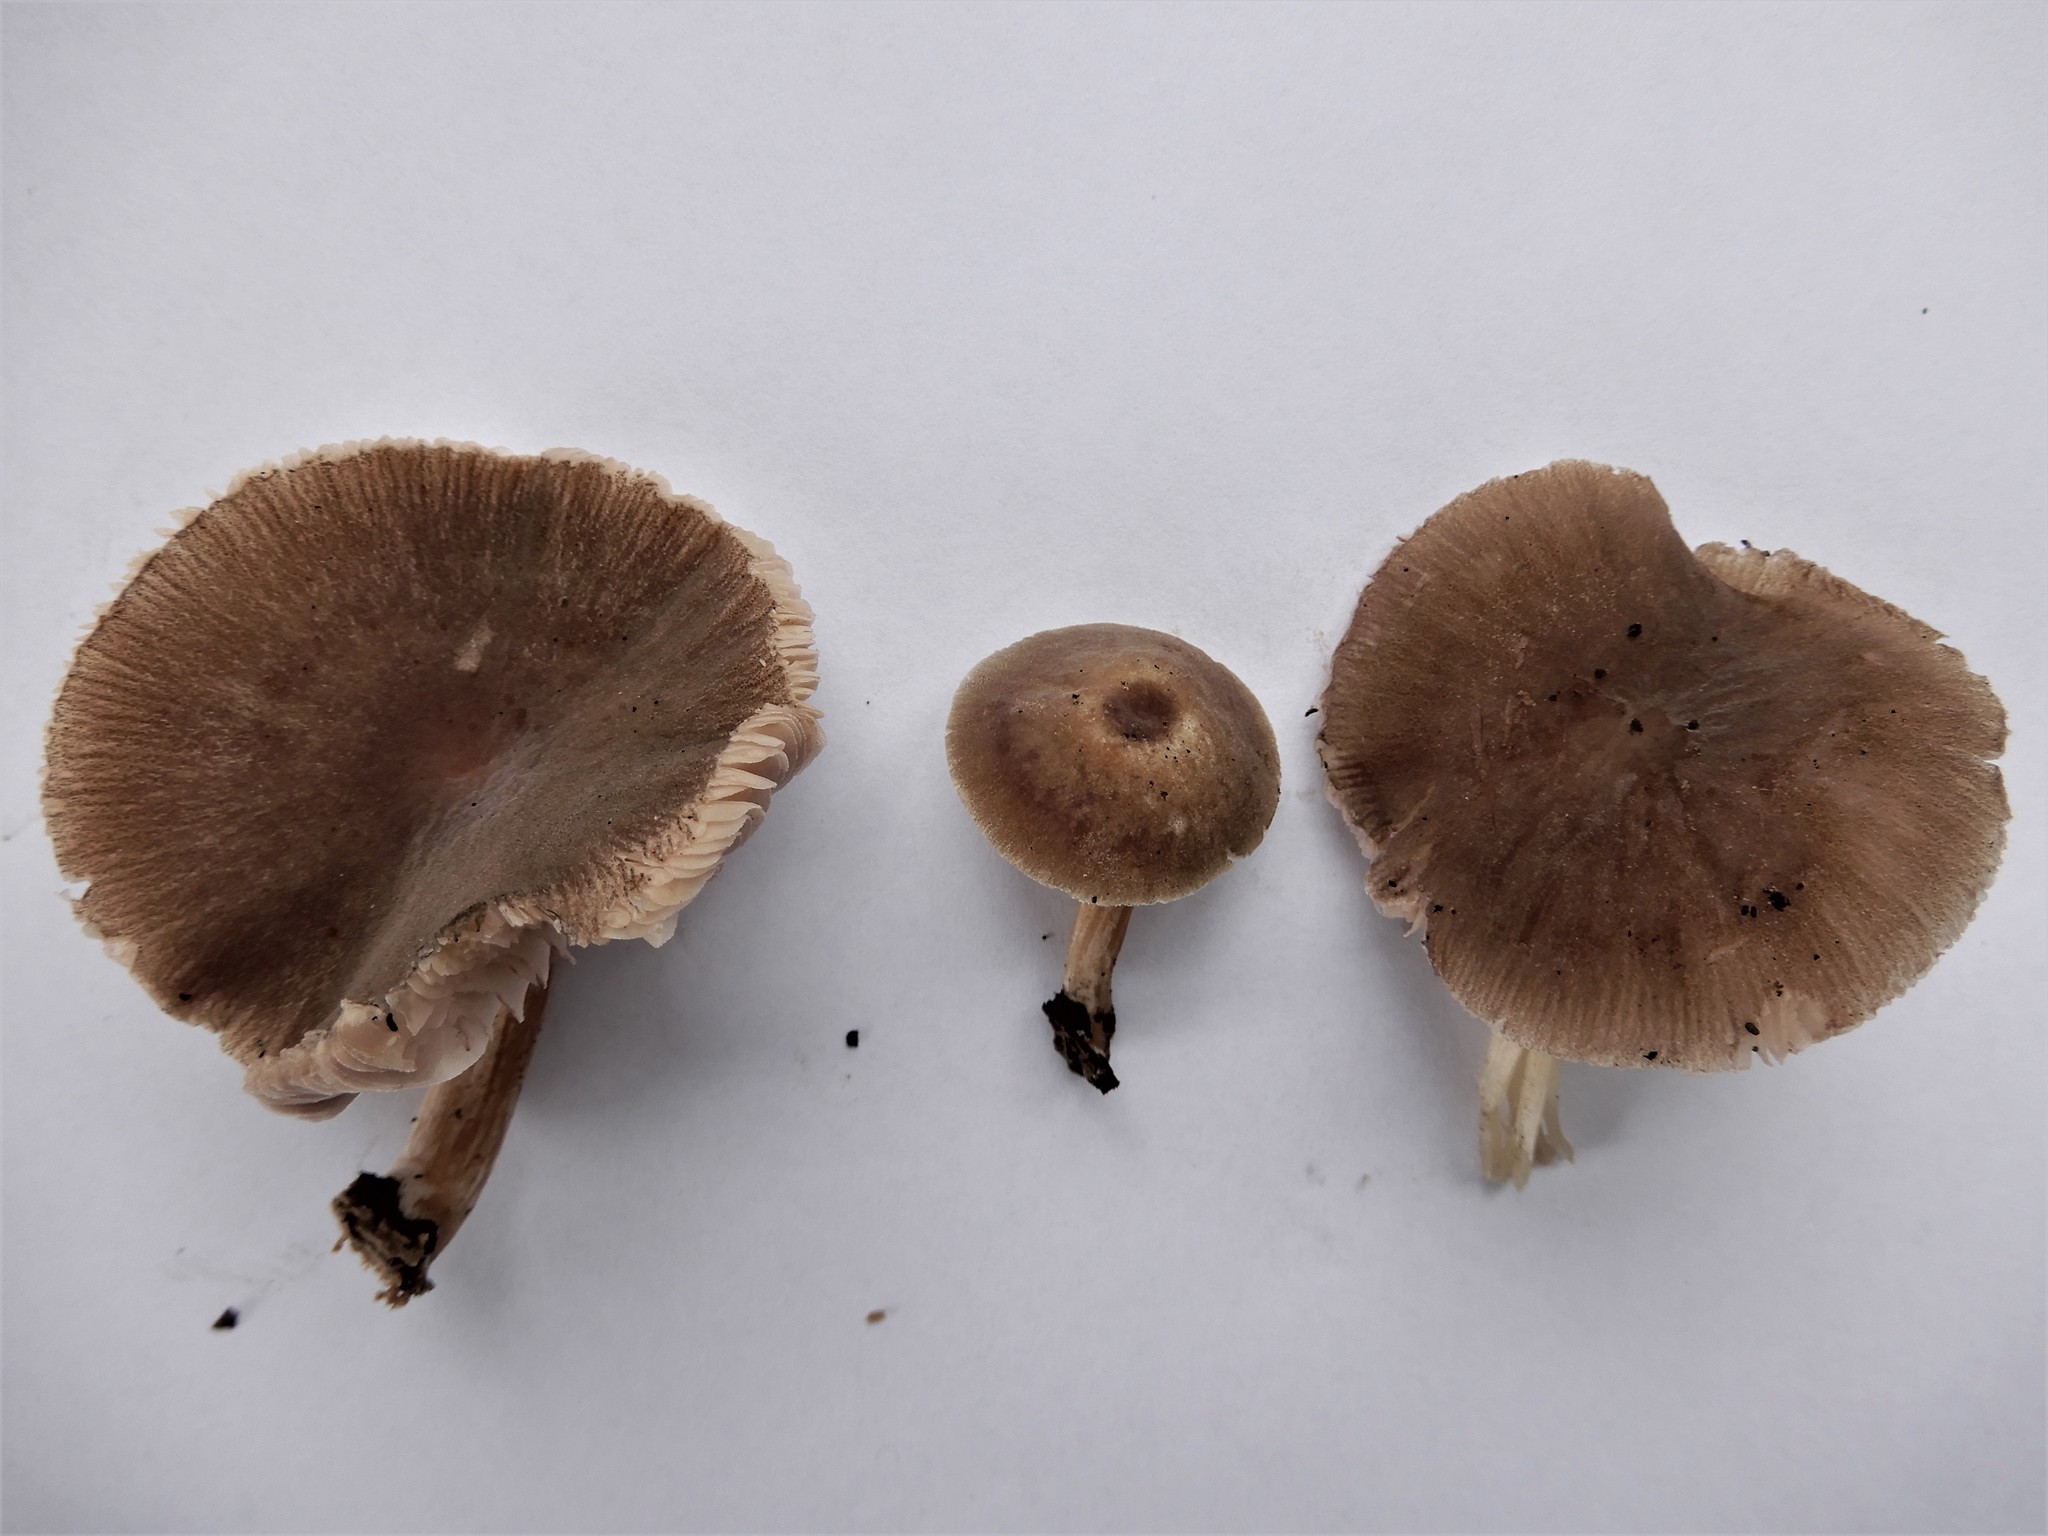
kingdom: Fungi
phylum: Basidiomycota
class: Agaricomycetes
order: Agaricales
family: Pluteaceae
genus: Pluteus
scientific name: Pluteus minor
